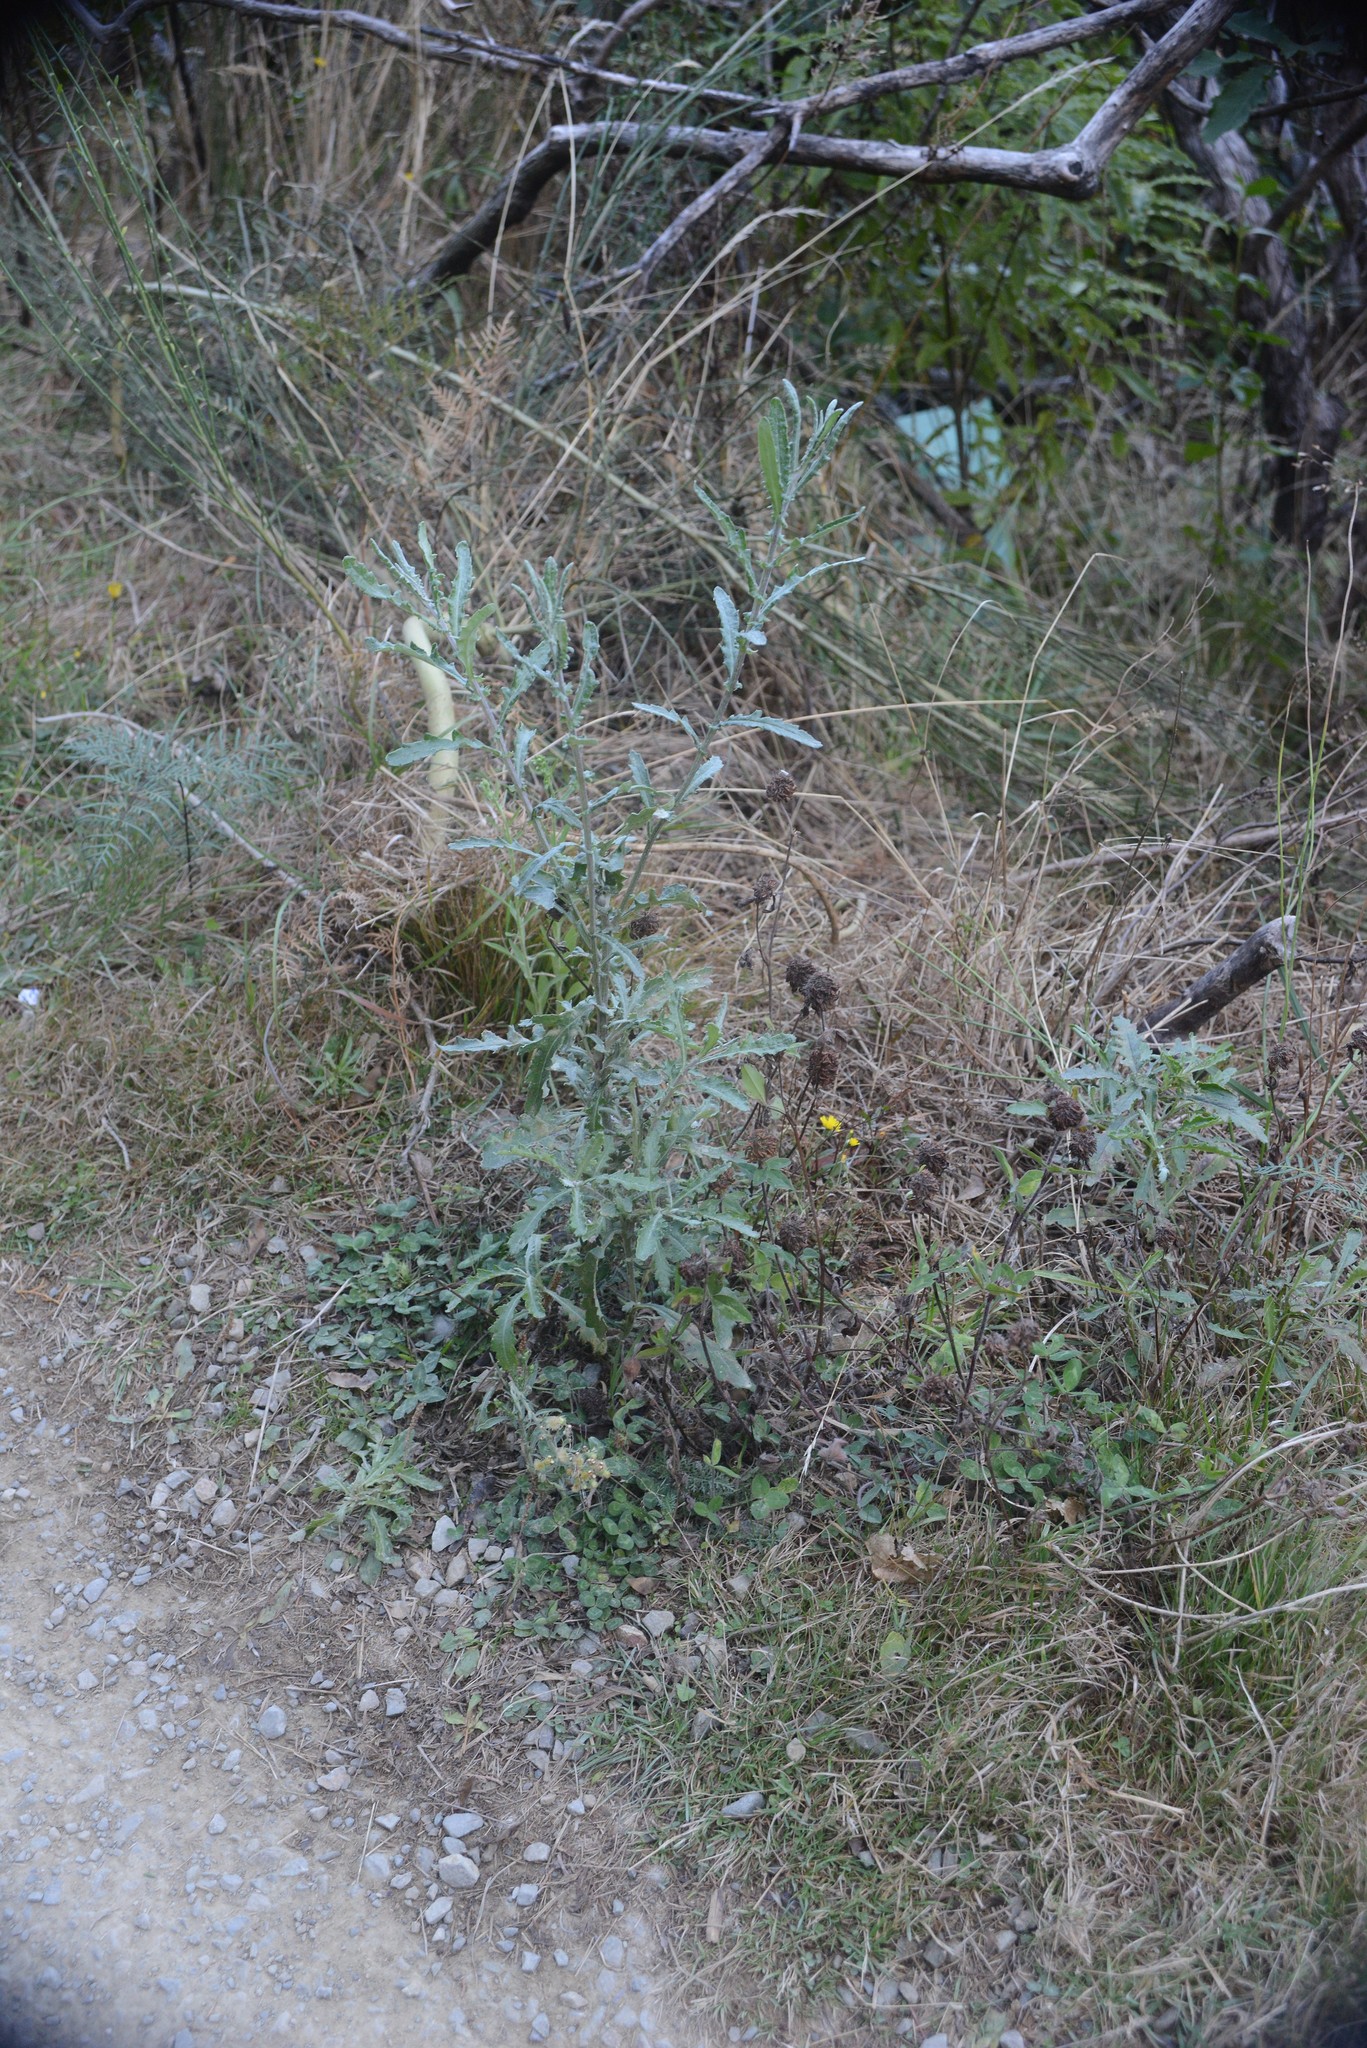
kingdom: Plantae
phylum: Tracheophyta
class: Magnoliopsida
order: Asterales
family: Asteraceae
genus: Senecio
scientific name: Senecio glomeratus
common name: Cutleaf burnweed
